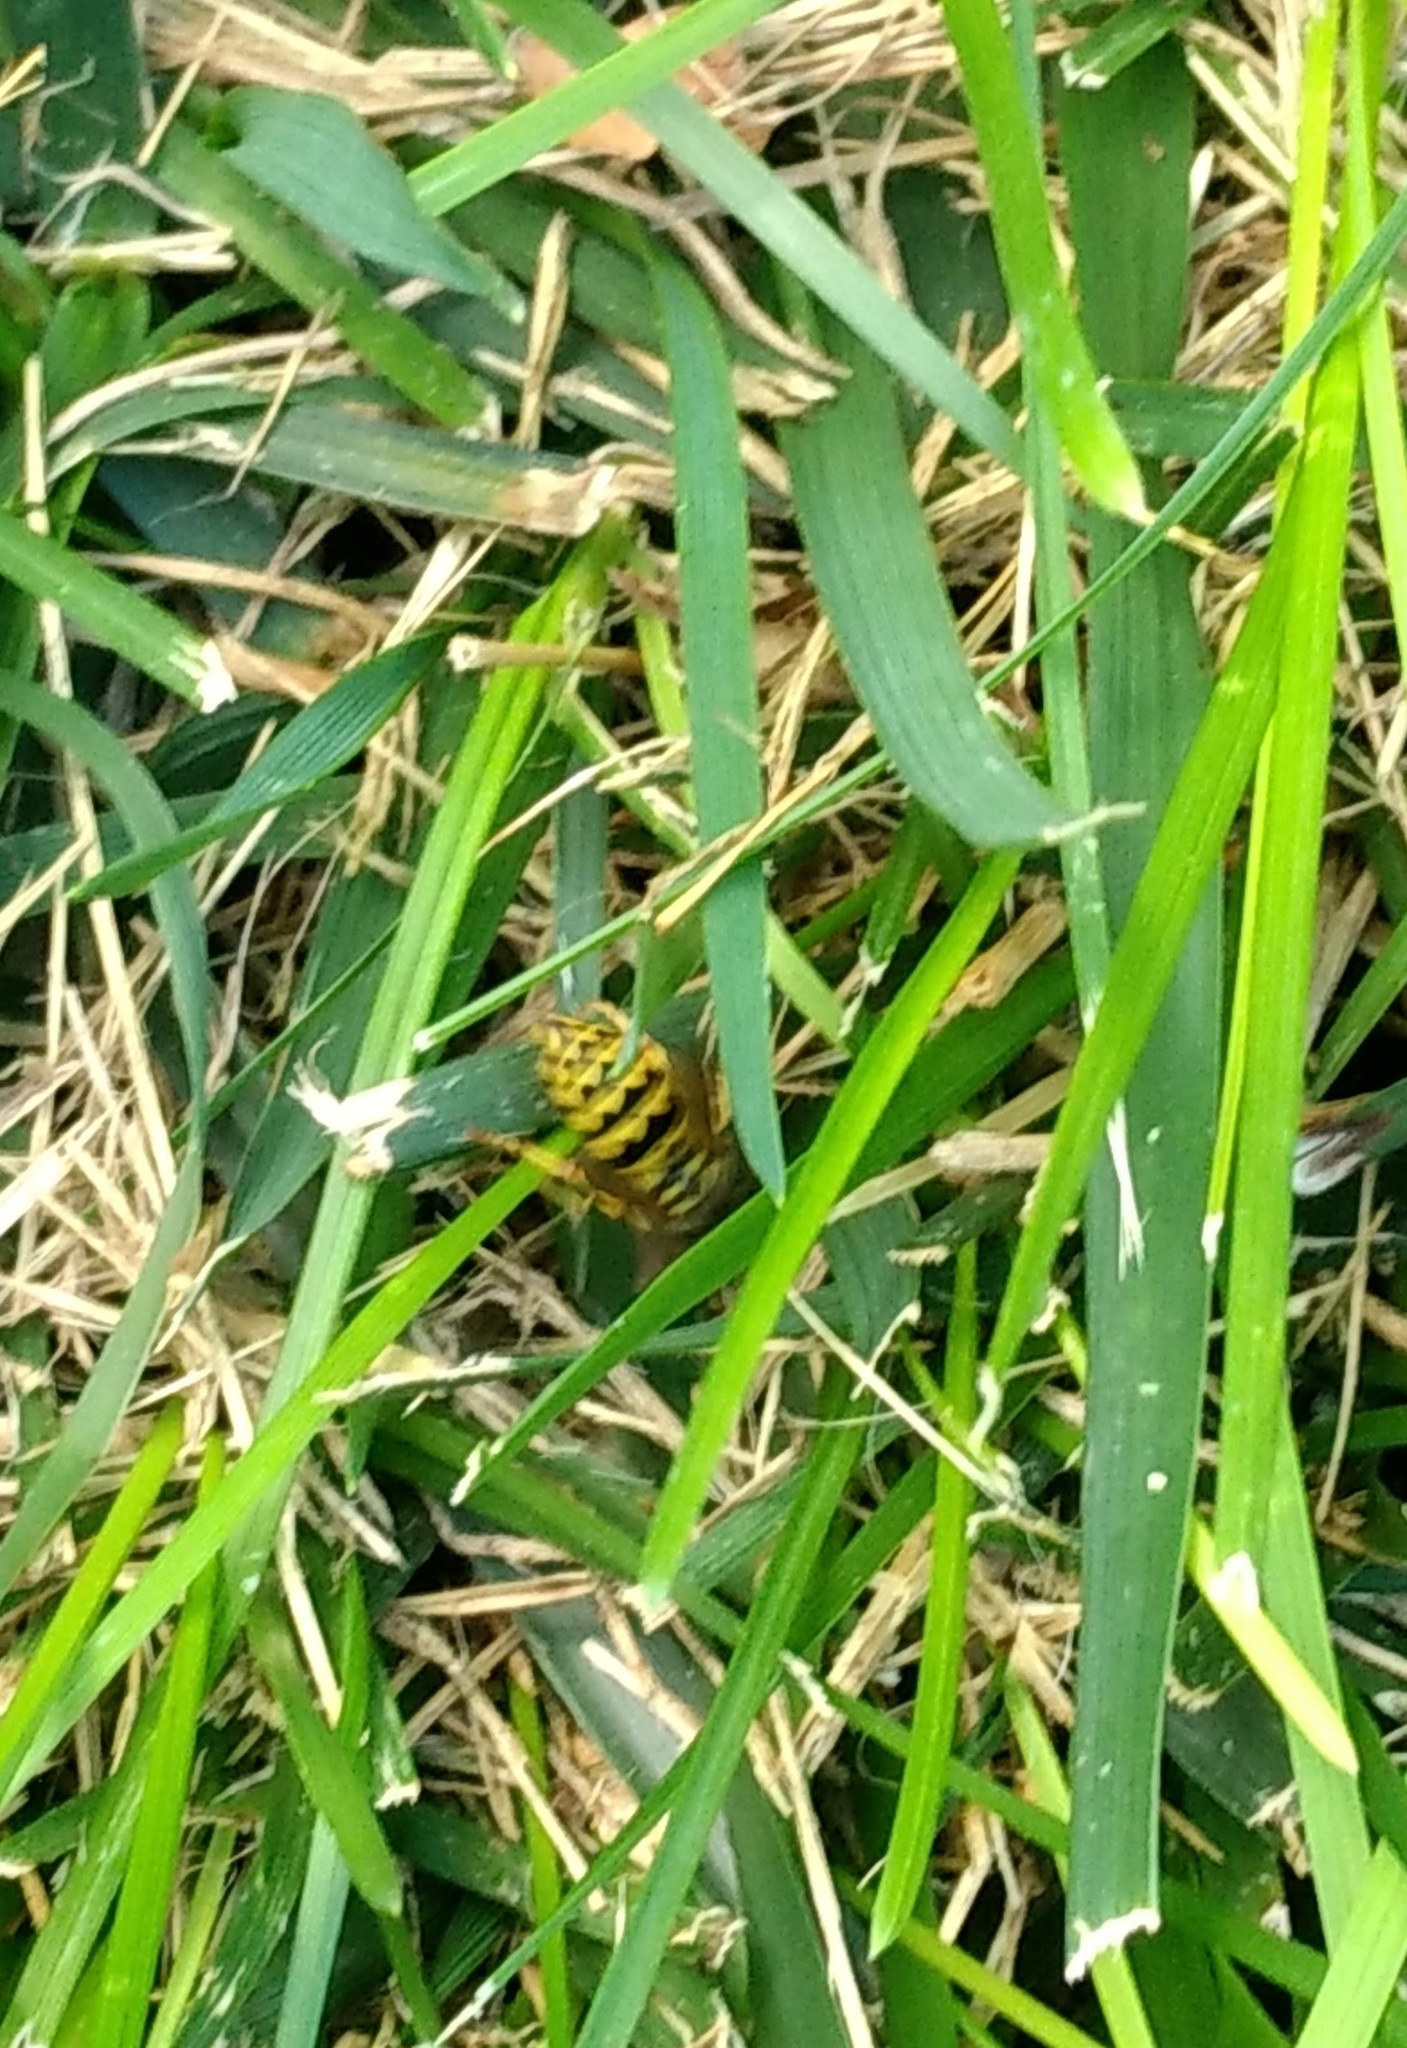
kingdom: Animalia
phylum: Arthropoda
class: Insecta
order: Hymenoptera
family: Vespidae
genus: Vespula
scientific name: Vespula pensylvanica
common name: Western yellowjacket
